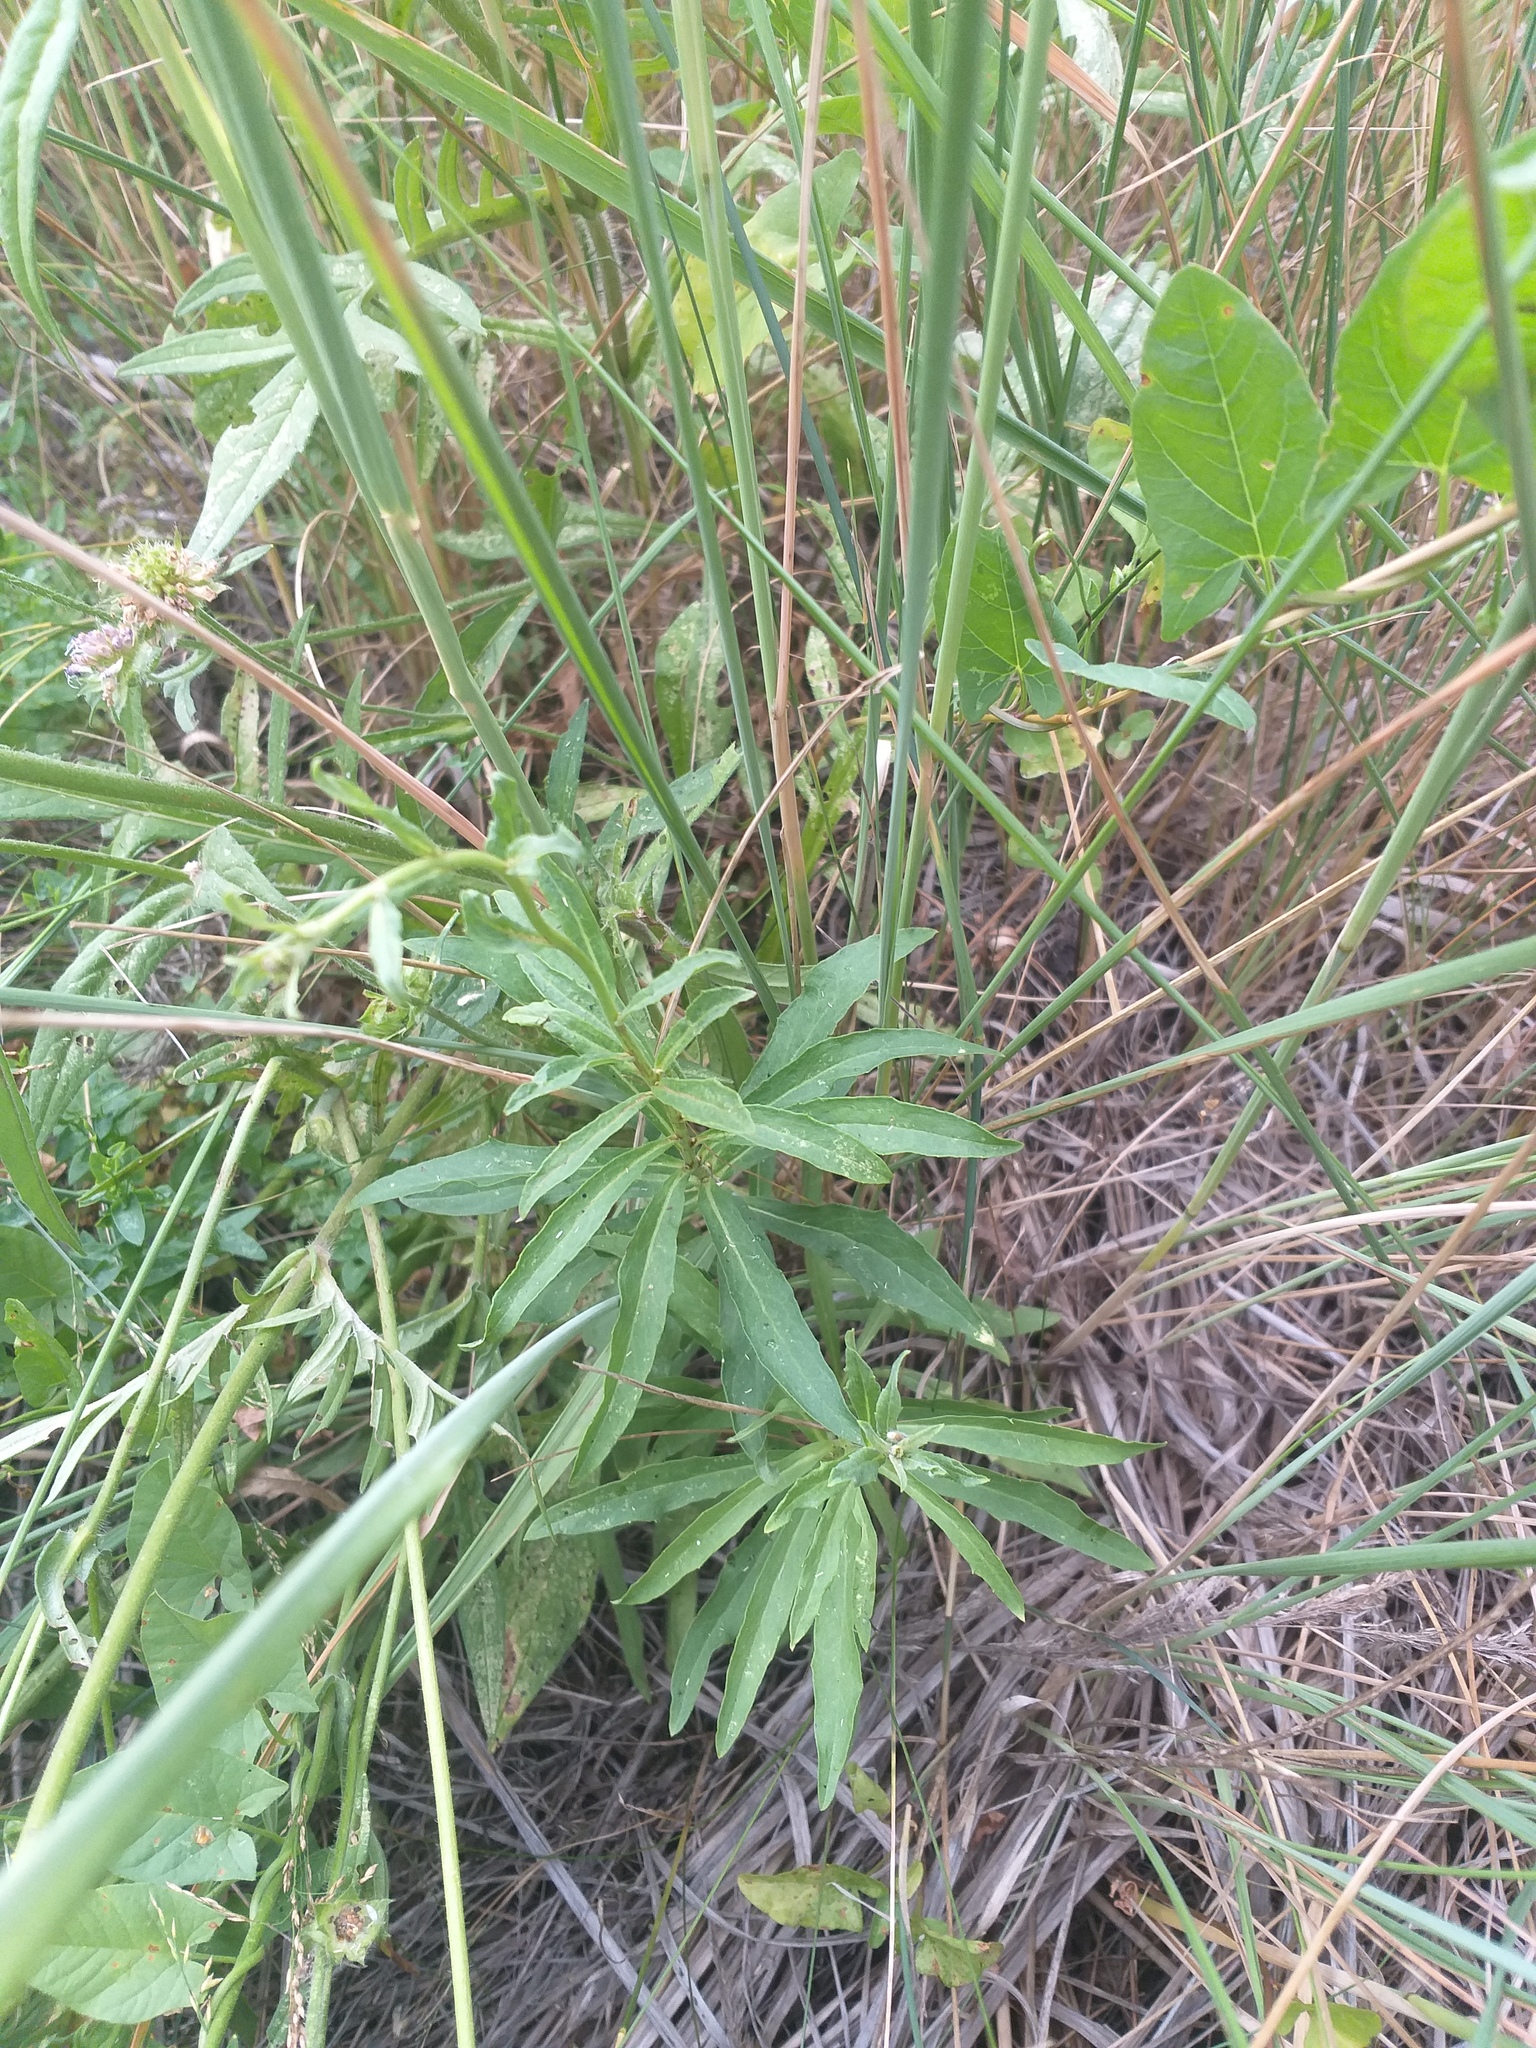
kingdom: Plantae
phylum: Tracheophyta
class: Magnoliopsida
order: Asterales
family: Asteraceae
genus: Hieracium
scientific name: Hieracium umbellatum
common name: Northern hawkweed
